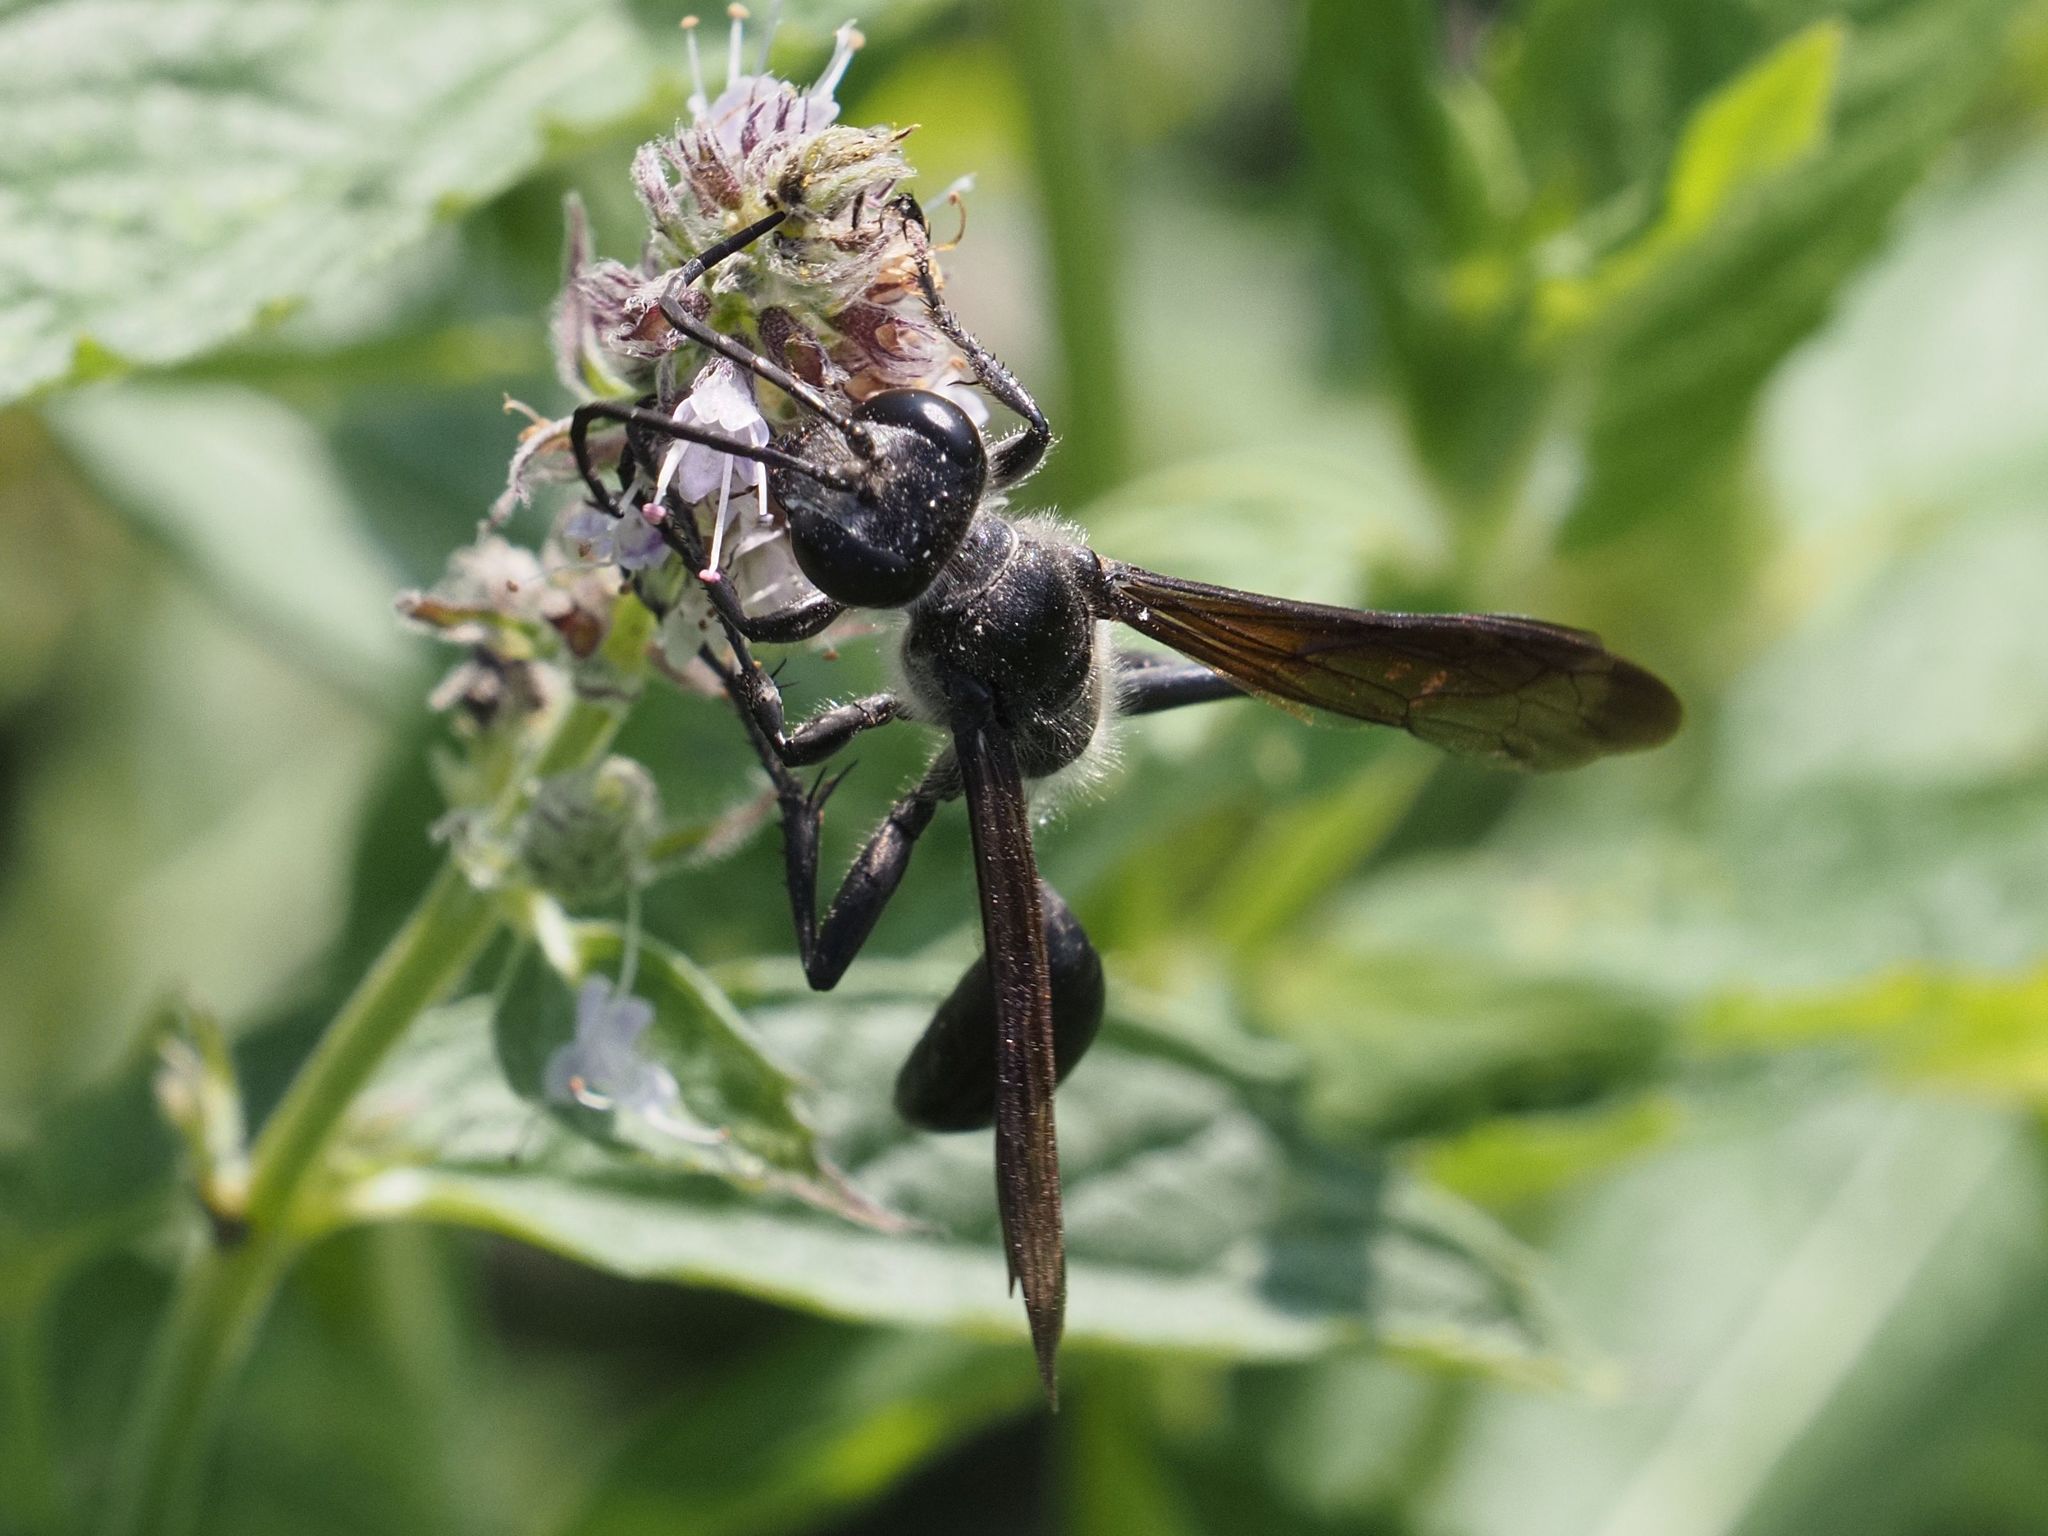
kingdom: Animalia
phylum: Arthropoda
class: Insecta
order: Hymenoptera
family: Sphecidae
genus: Isodontia
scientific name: Isodontia mexicana
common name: Mud dauber
